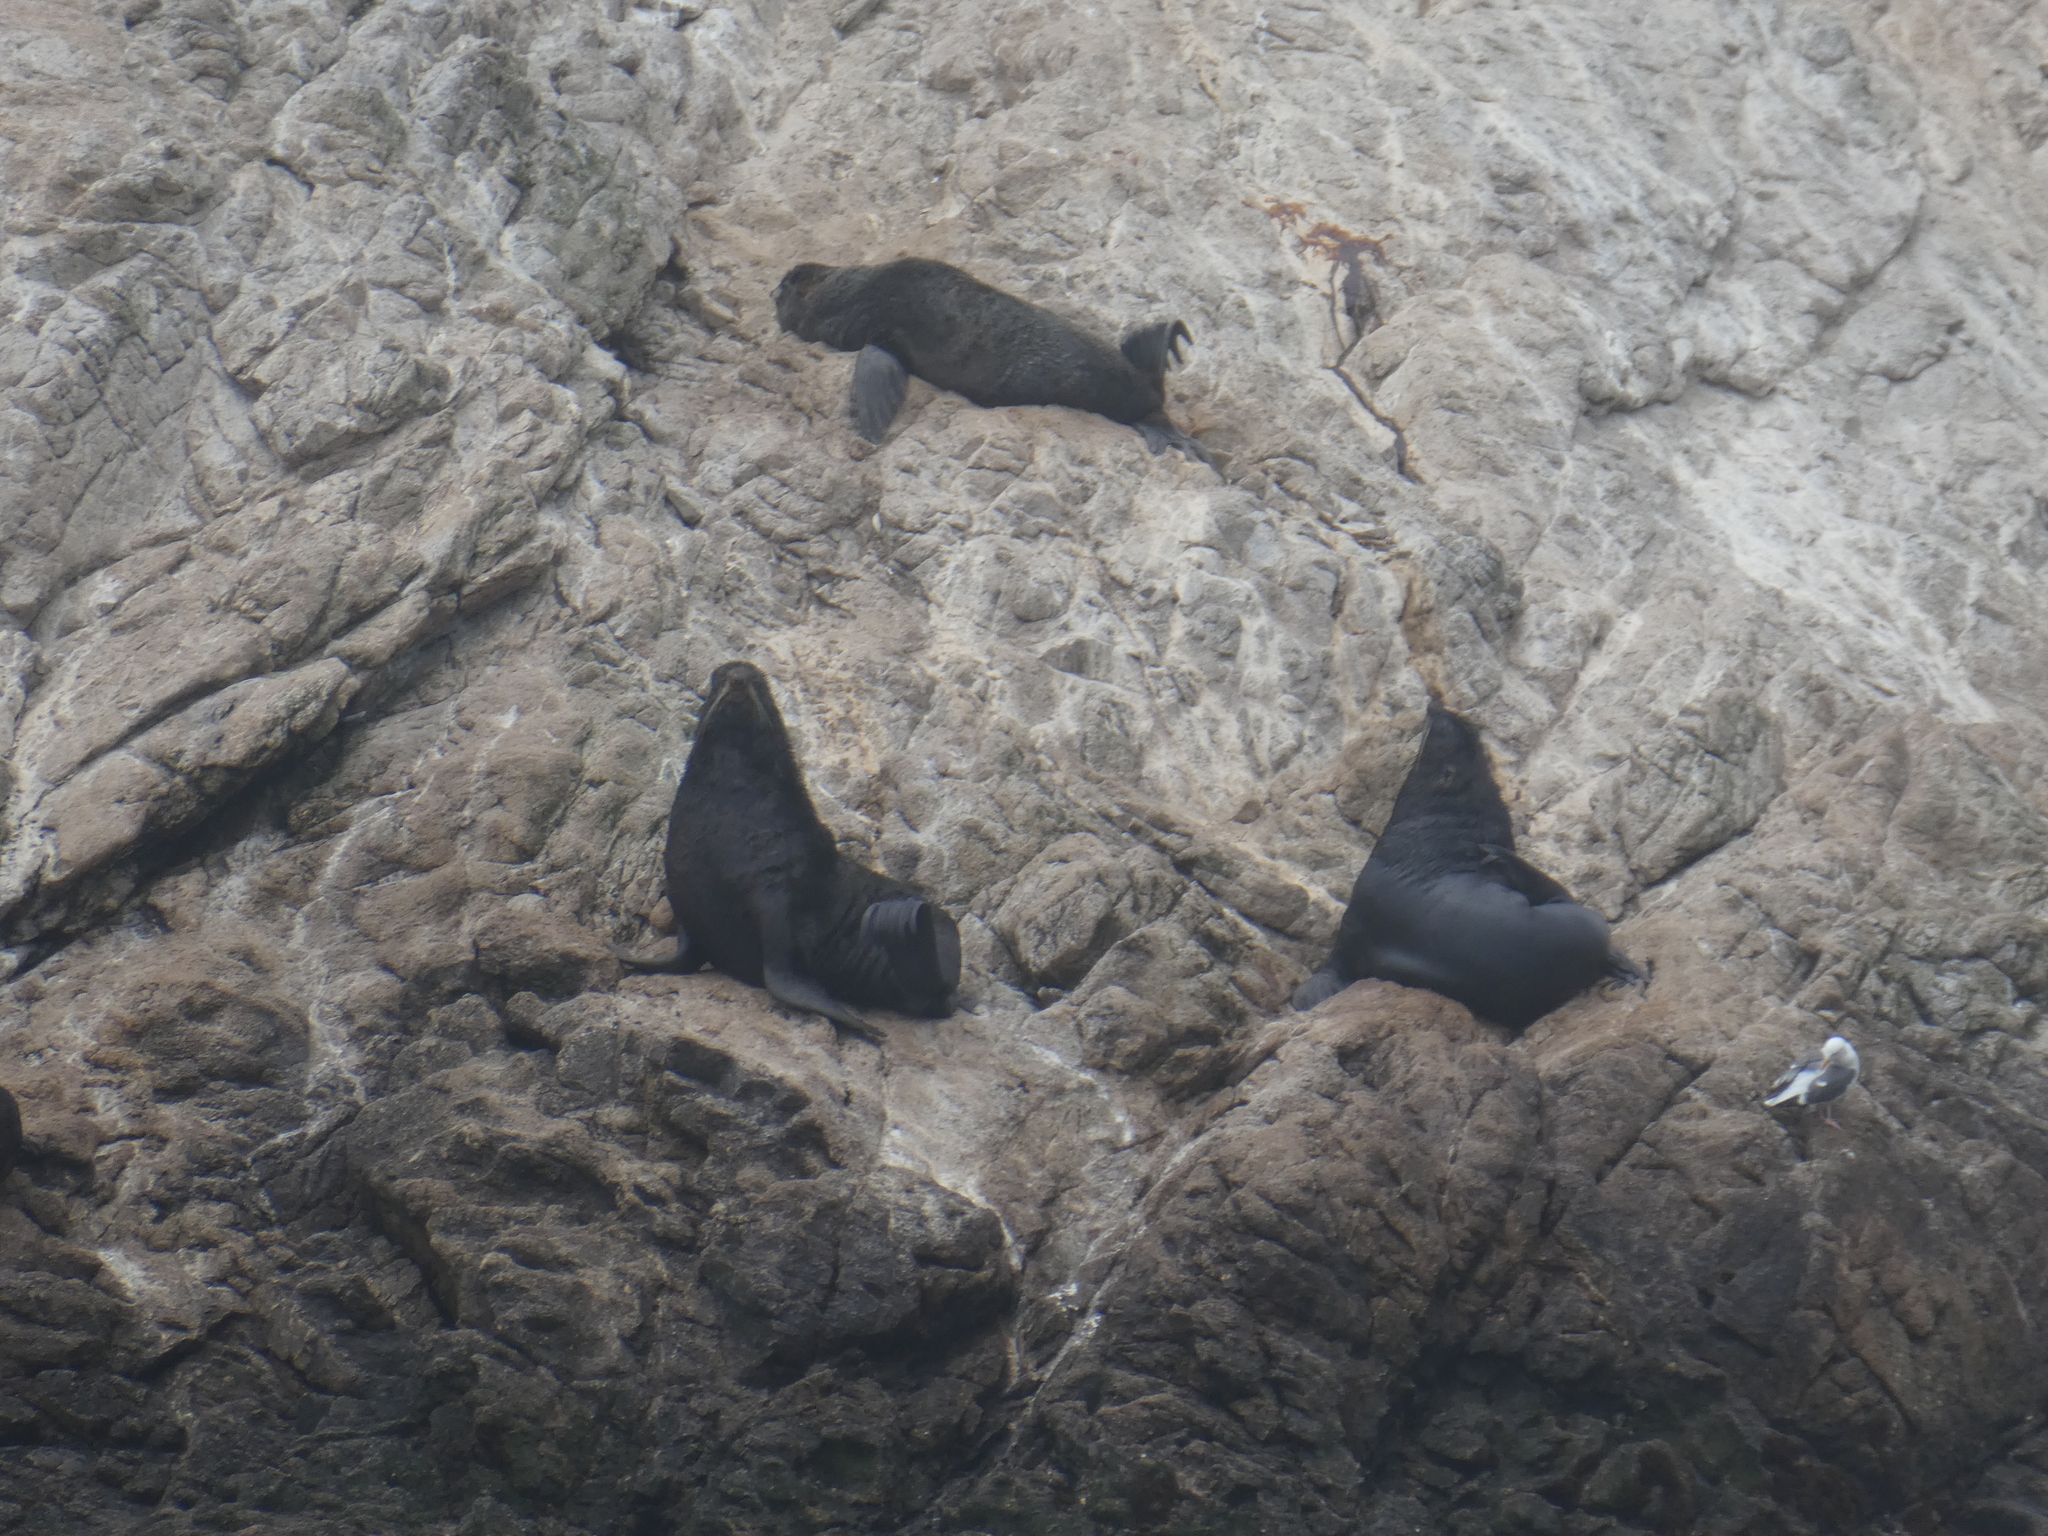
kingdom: Animalia
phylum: Chordata
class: Mammalia
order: Carnivora
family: Otariidae
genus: Callorhinus
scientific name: Callorhinus ursinus
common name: Northern fur seal
